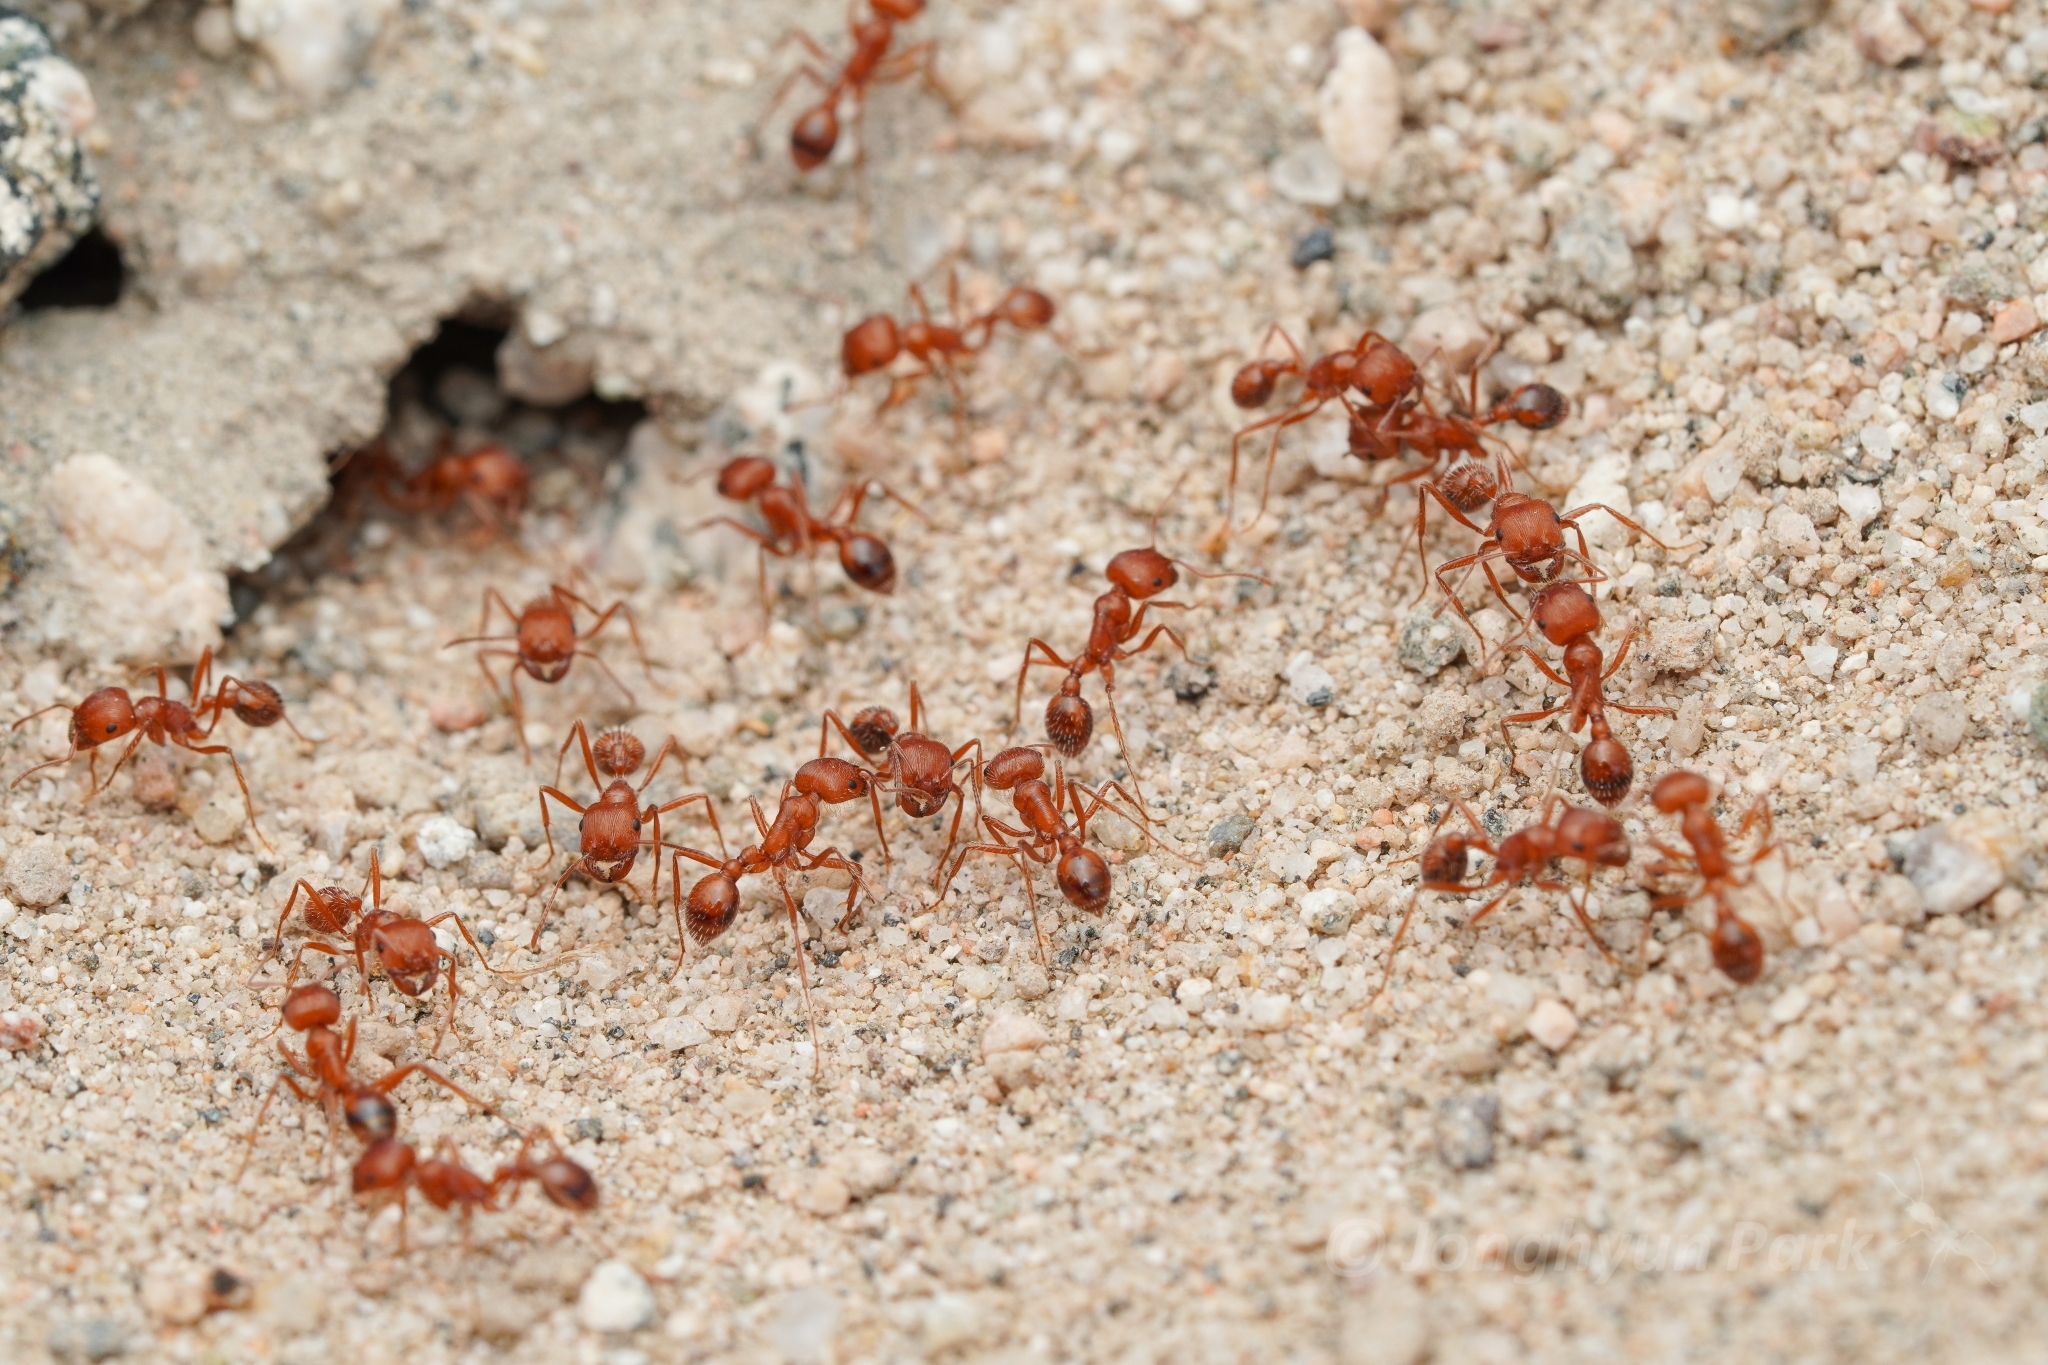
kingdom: Animalia
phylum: Arthropoda
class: Insecta
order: Hymenoptera
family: Formicidae
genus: Pogonomyrmex
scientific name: Pogonomyrmex californicus
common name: California harvester ant
